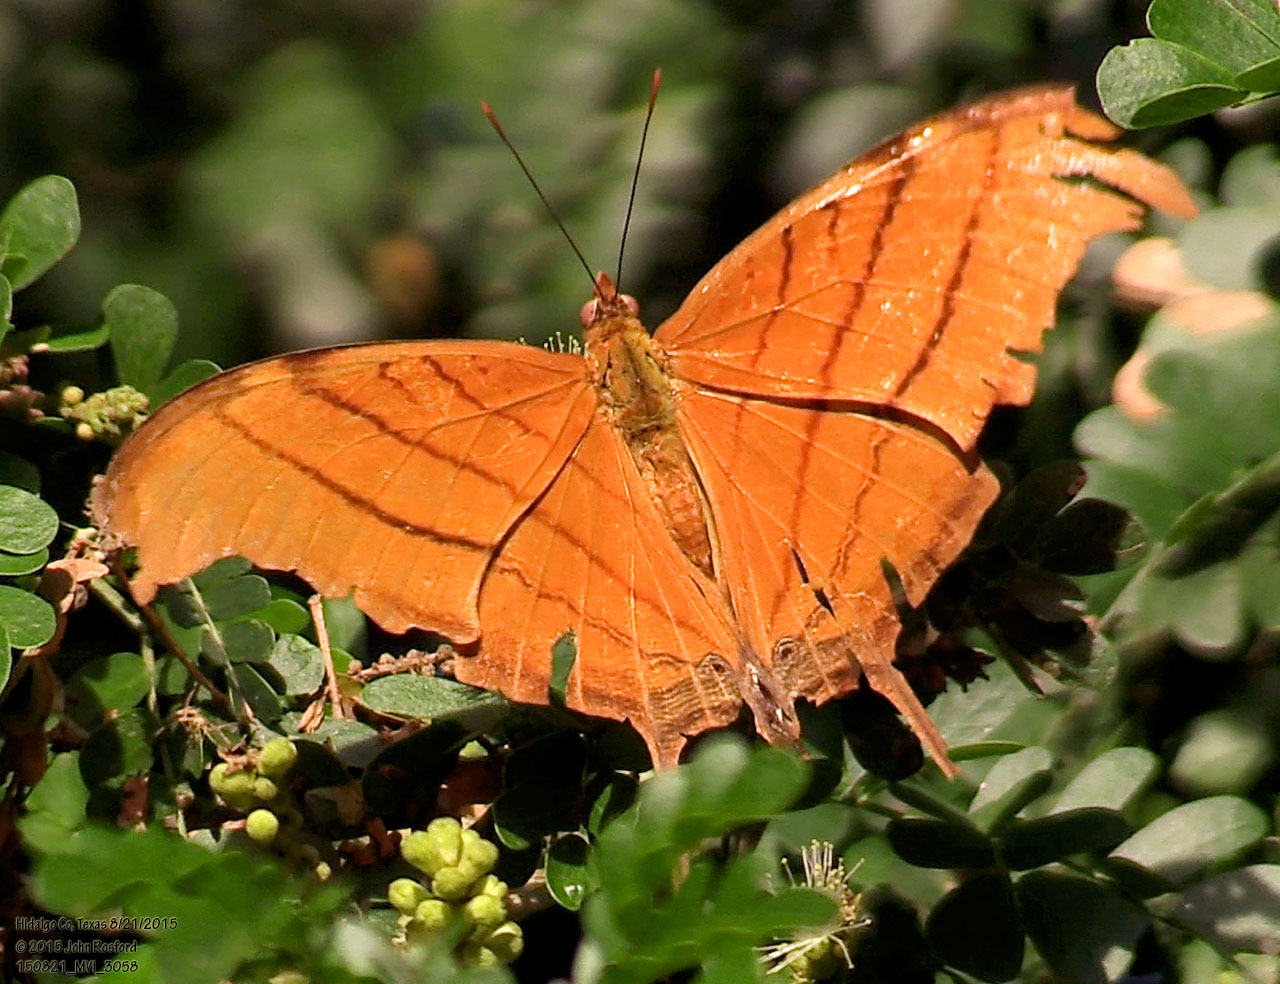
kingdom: Animalia
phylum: Arthropoda
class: Insecta
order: Lepidoptera
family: Nymphalidae
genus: Marpesia
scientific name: Marpesia petreus
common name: Red dagger wing
